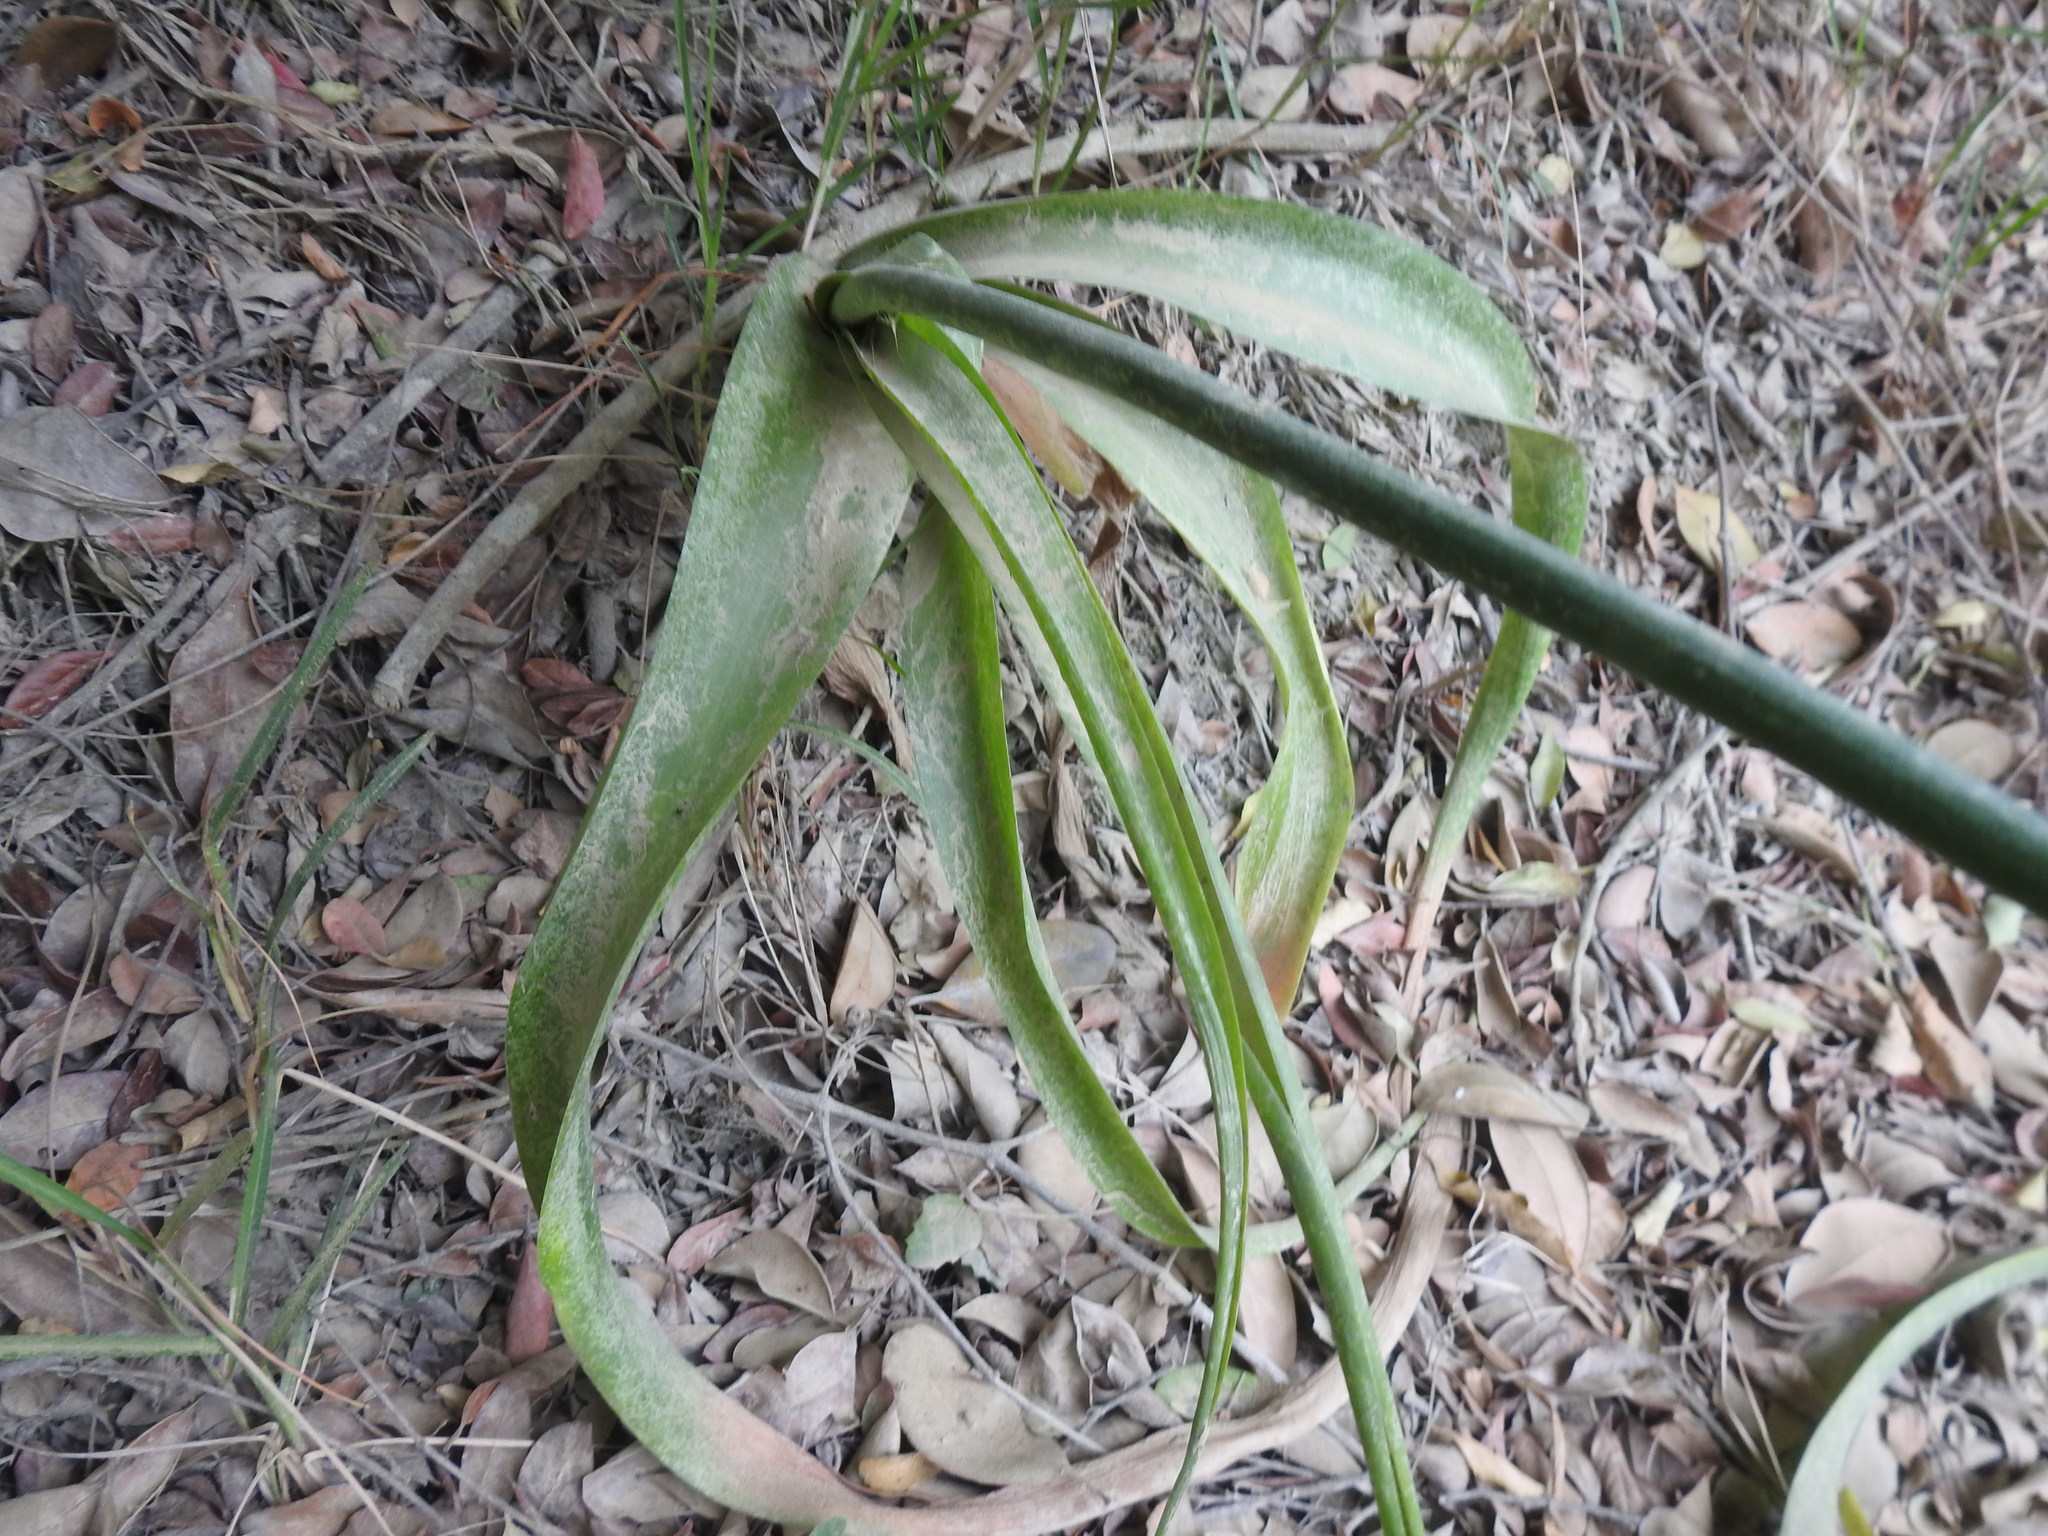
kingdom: Plantae
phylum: Tracheophyta
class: Liliopsida
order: Asparagales
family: Asparagaceae
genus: Albuca
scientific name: Albuca bracteata
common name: Sea-onion
